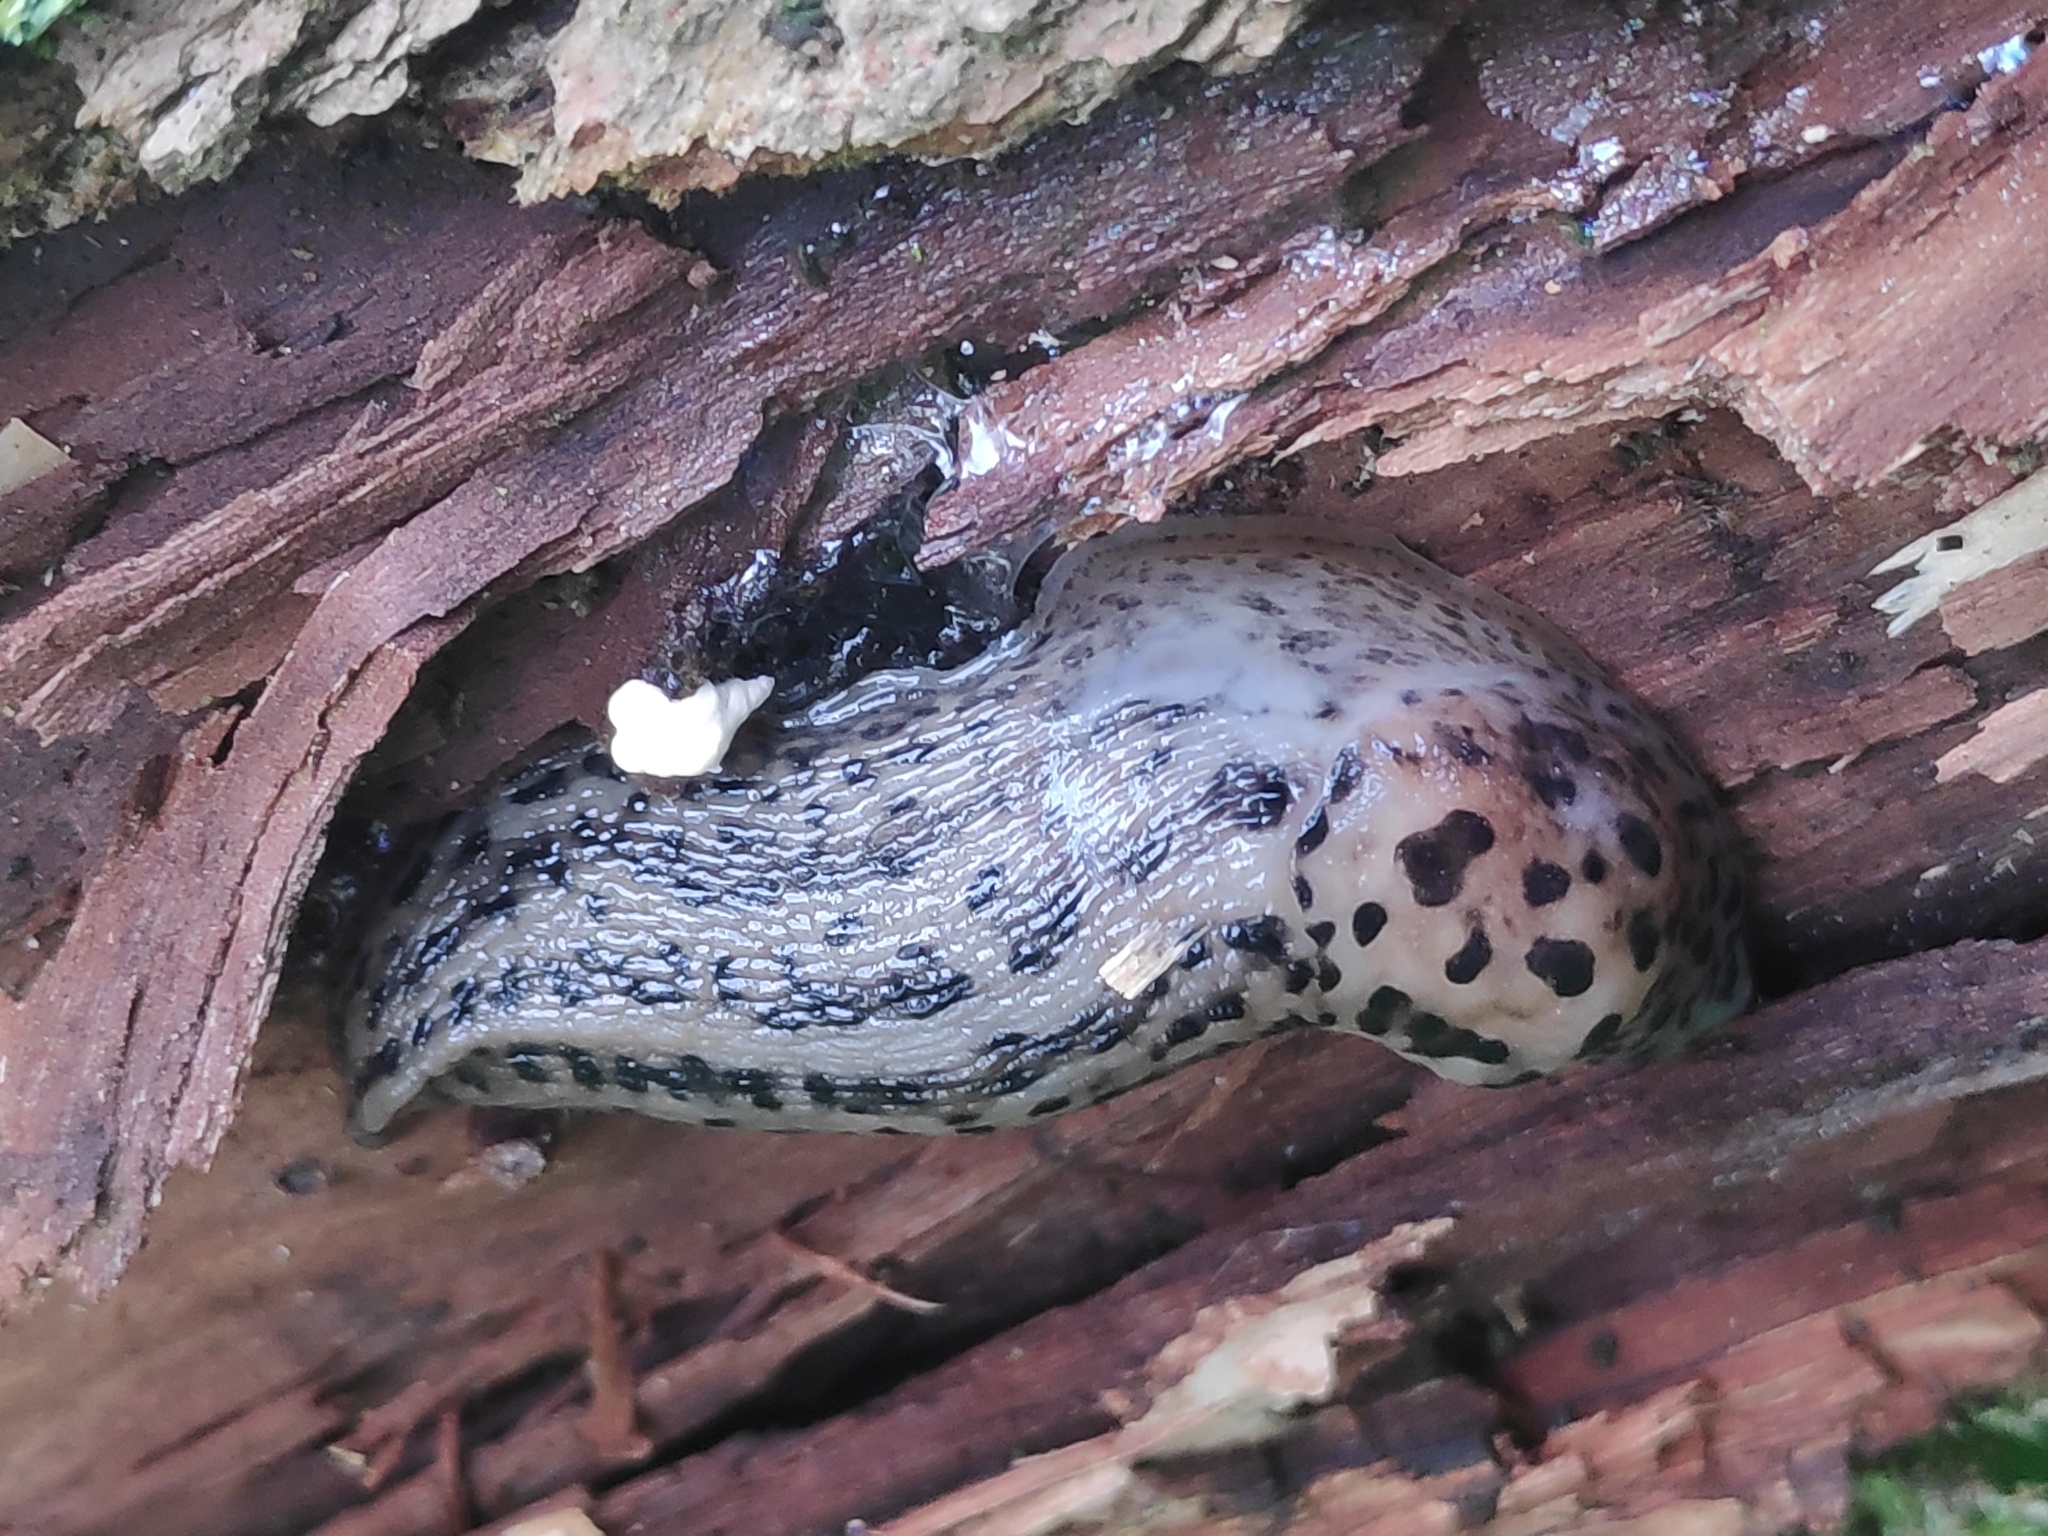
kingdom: Animalia
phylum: Mollusca
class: Gastropoda
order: Stylommatophora
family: Limacidae
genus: Limax
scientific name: Limax maximus
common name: Great grey slug
